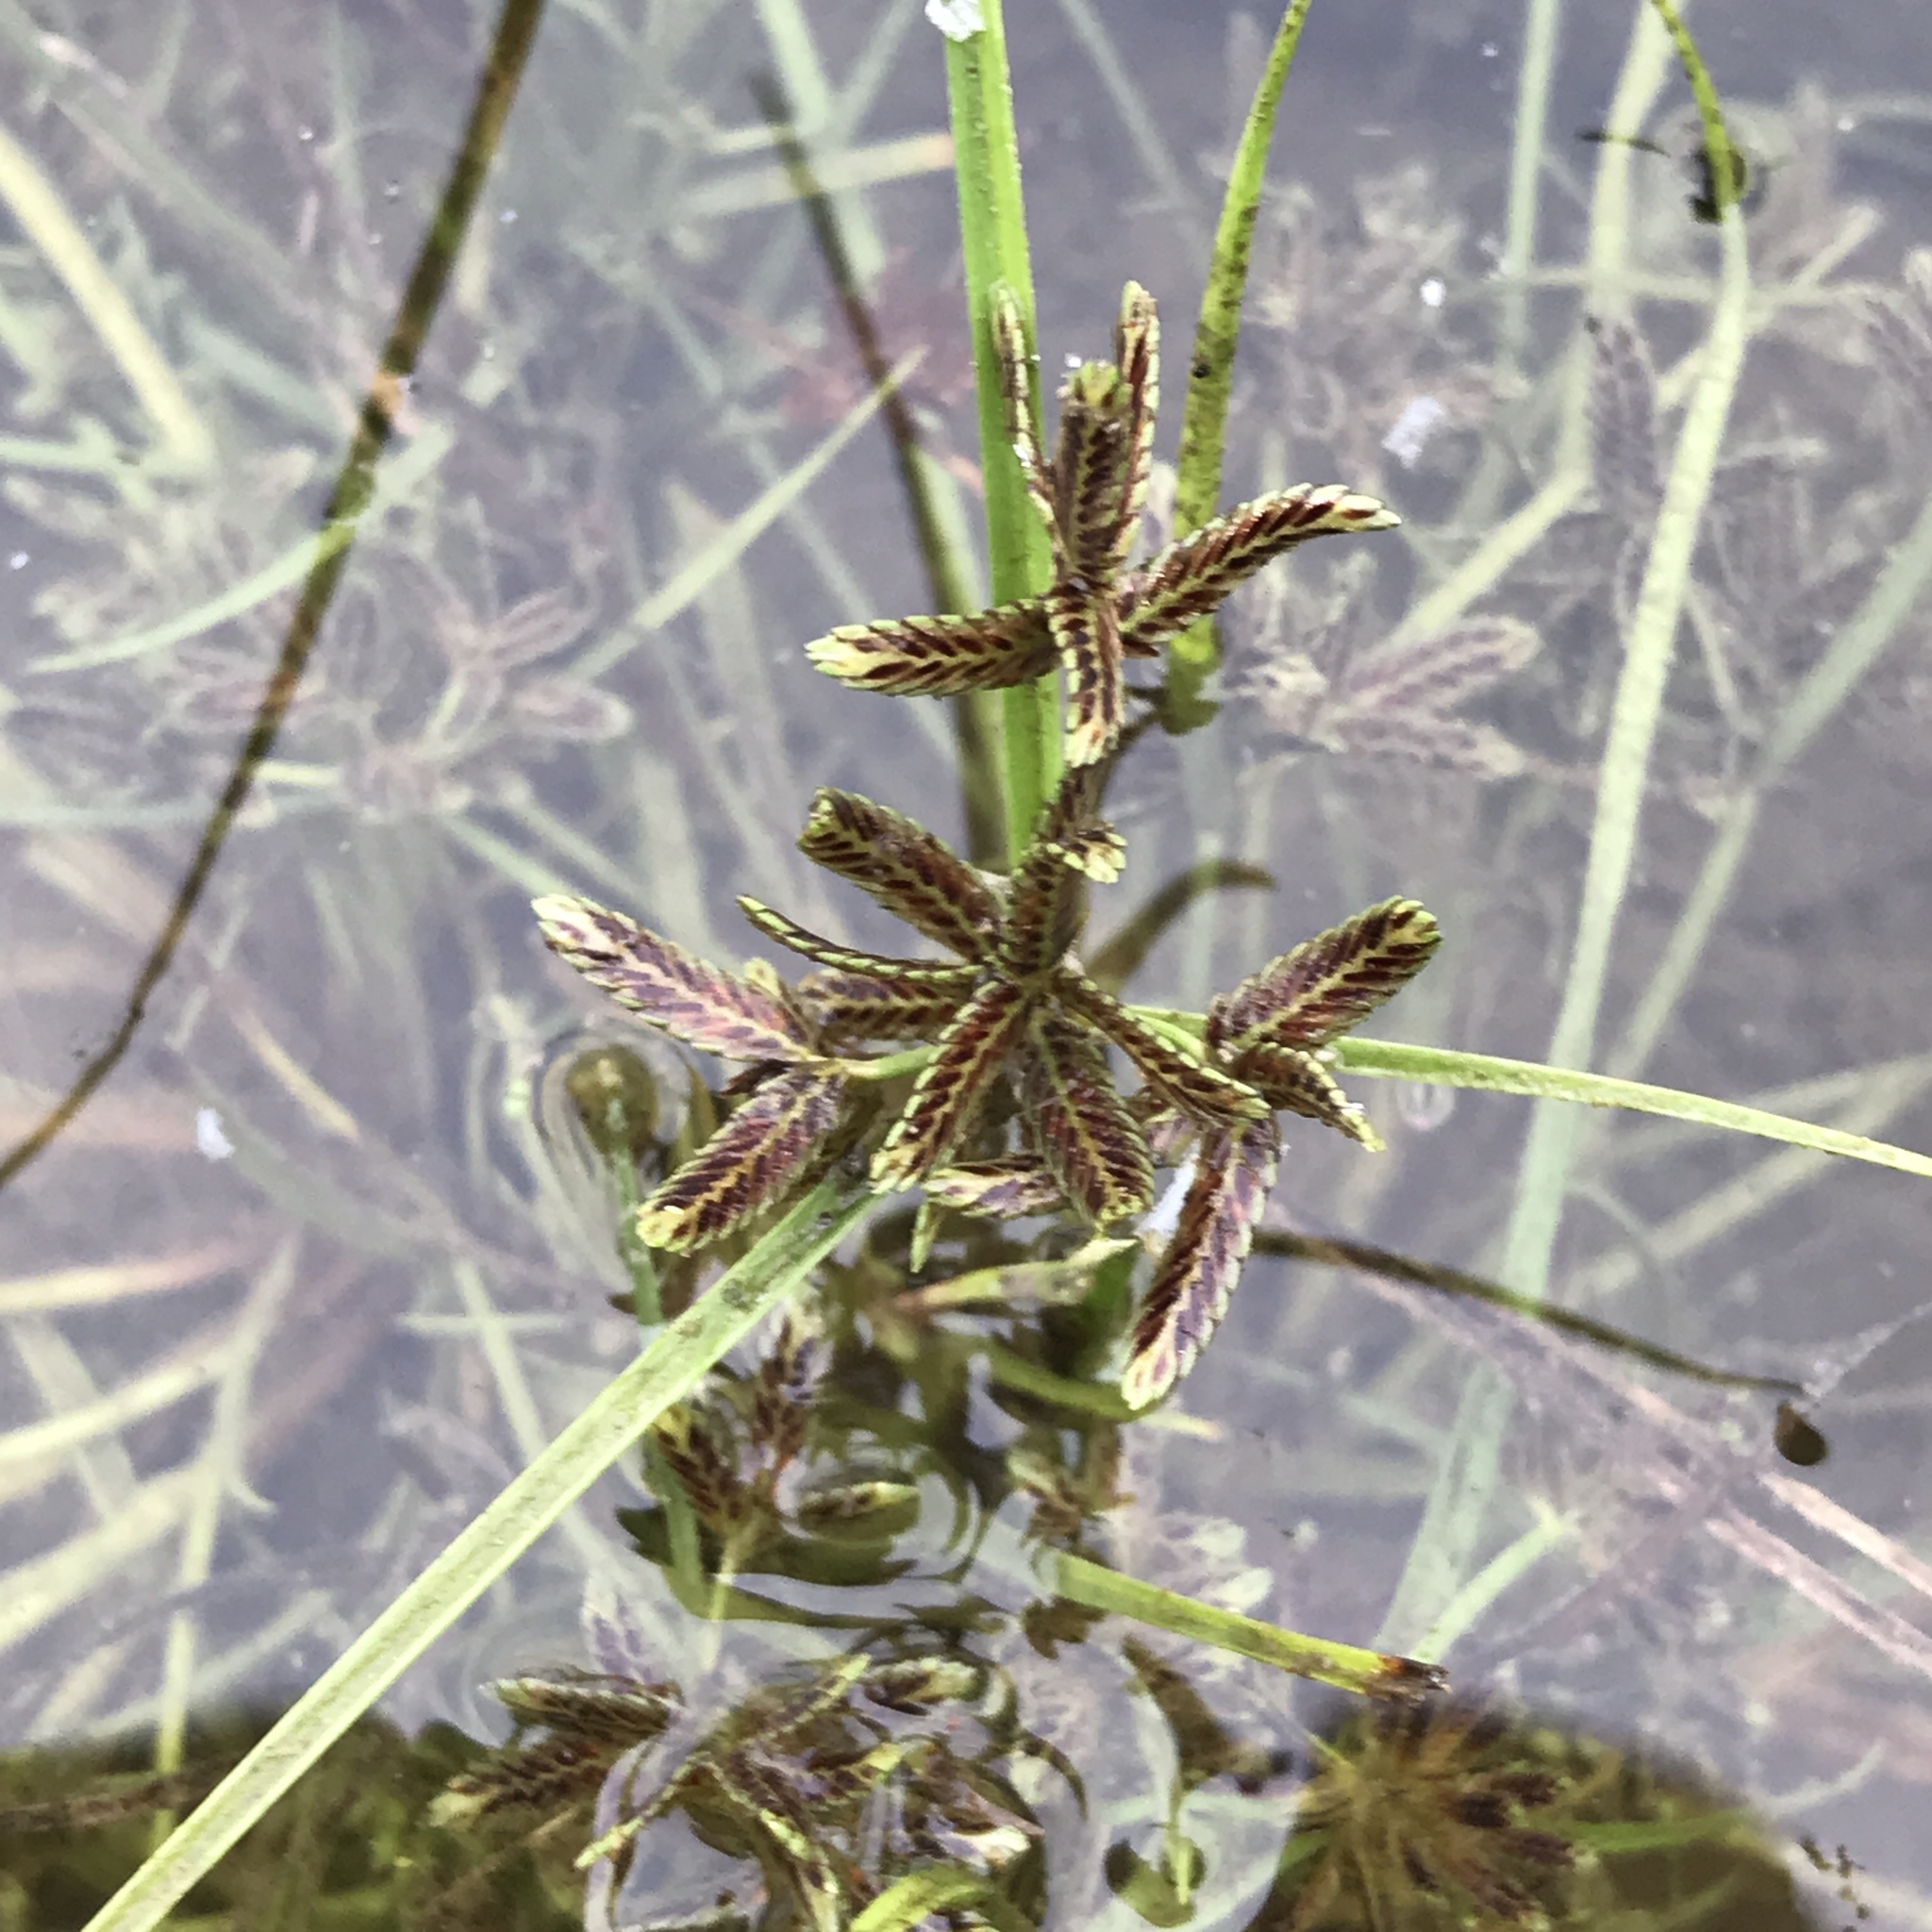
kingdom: Plantae
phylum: Tracheophyta
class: Liliopsida
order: Poales
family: Cyperaceae
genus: Cyperus
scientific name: Cyperus fuscus
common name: Brown galingale
